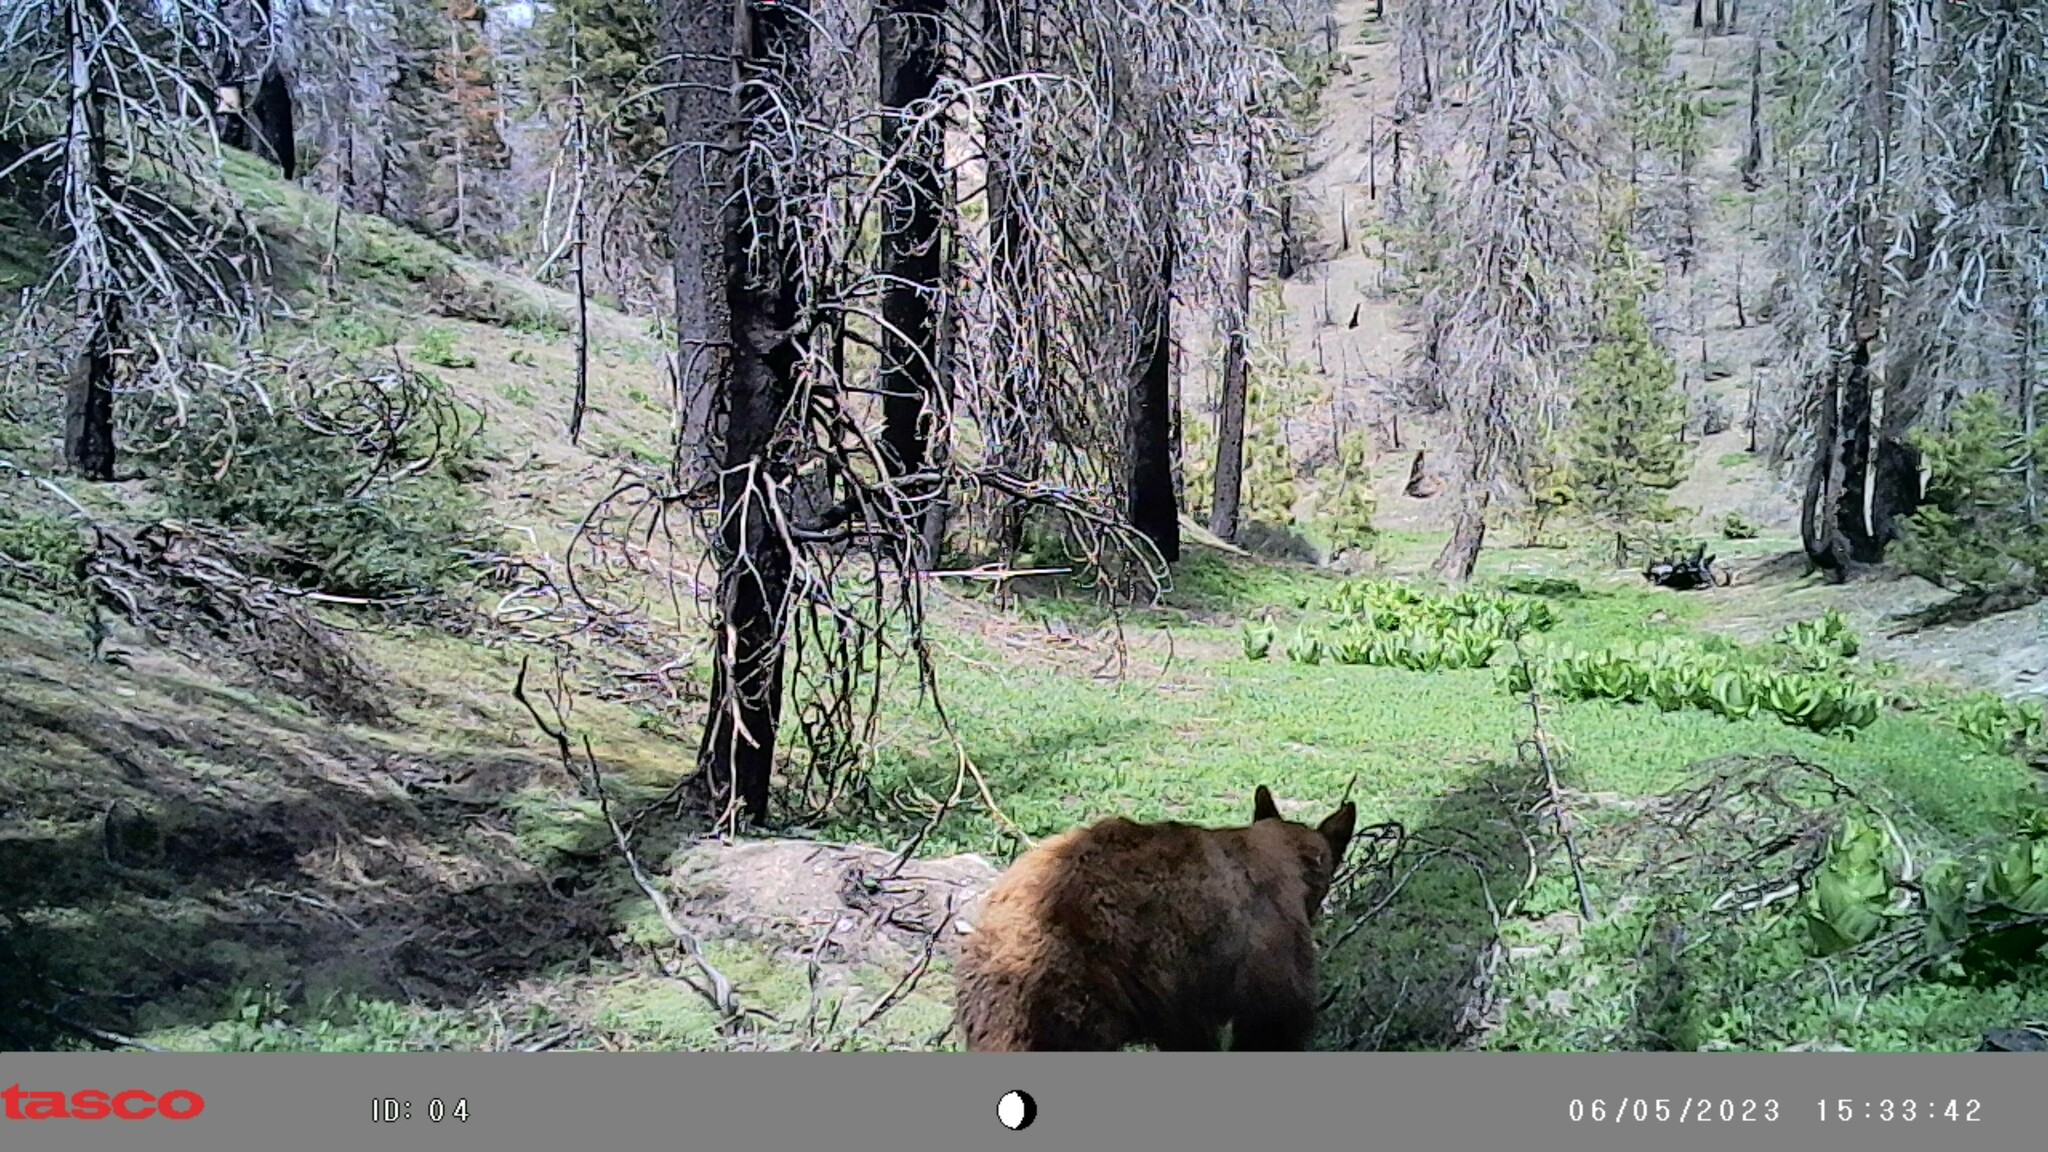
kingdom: Animalia
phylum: Chordata
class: Mammalia
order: Carnivora
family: Ursidae
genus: Ursus
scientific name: Ursus americanus
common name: American black bear
